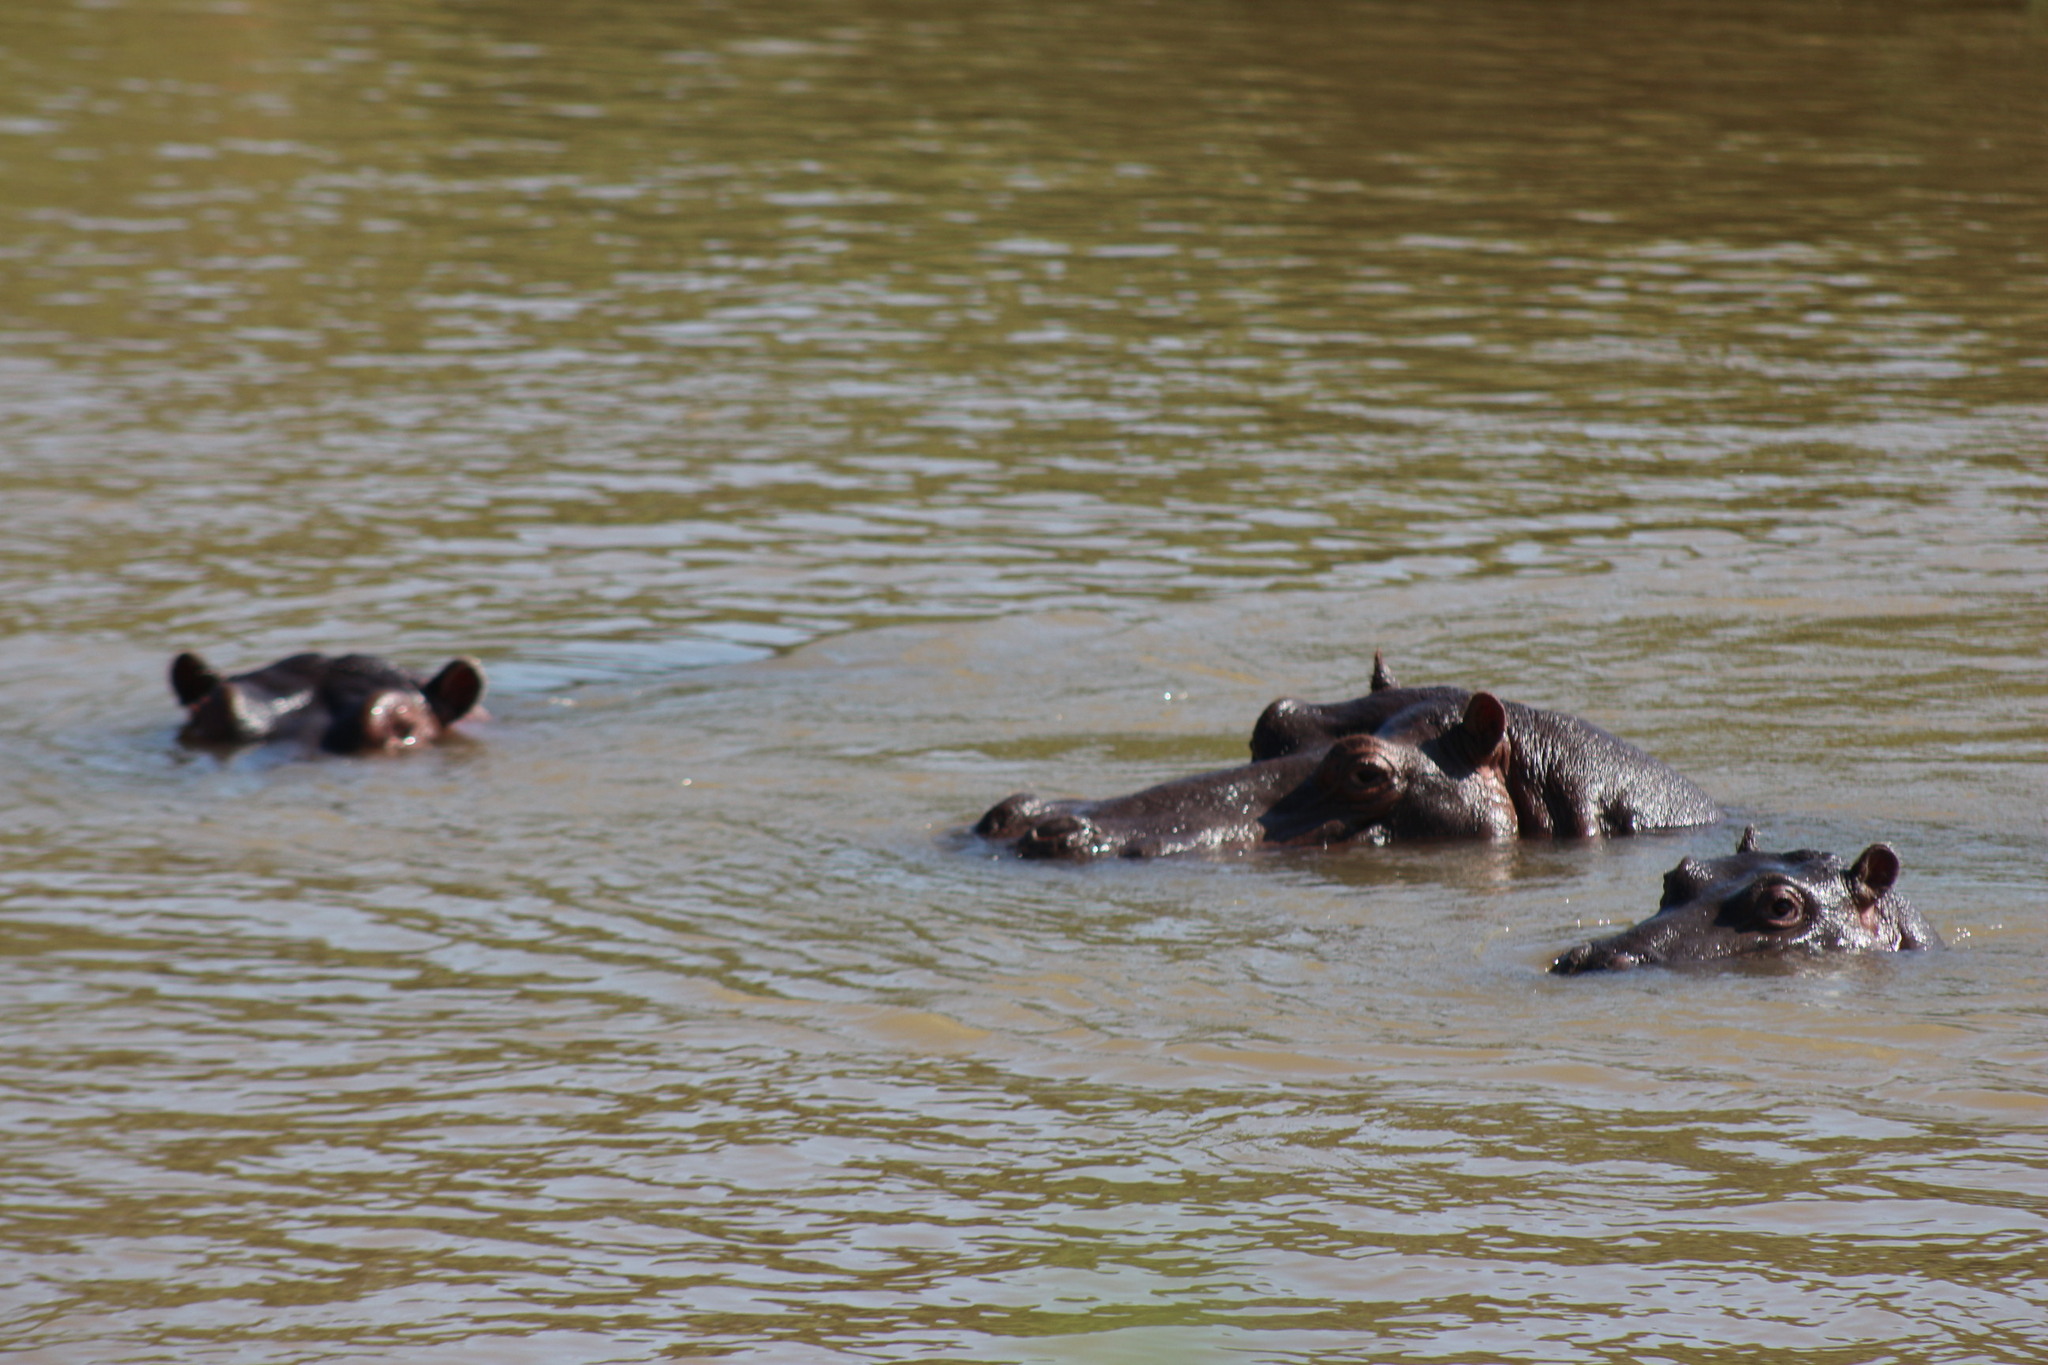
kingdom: Animalia
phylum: Chordata
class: Mammalia
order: Artiodactyla
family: Hippopotamidae
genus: Hippopotamus
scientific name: Hippopotamus amphibius
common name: Common hippopotamus
